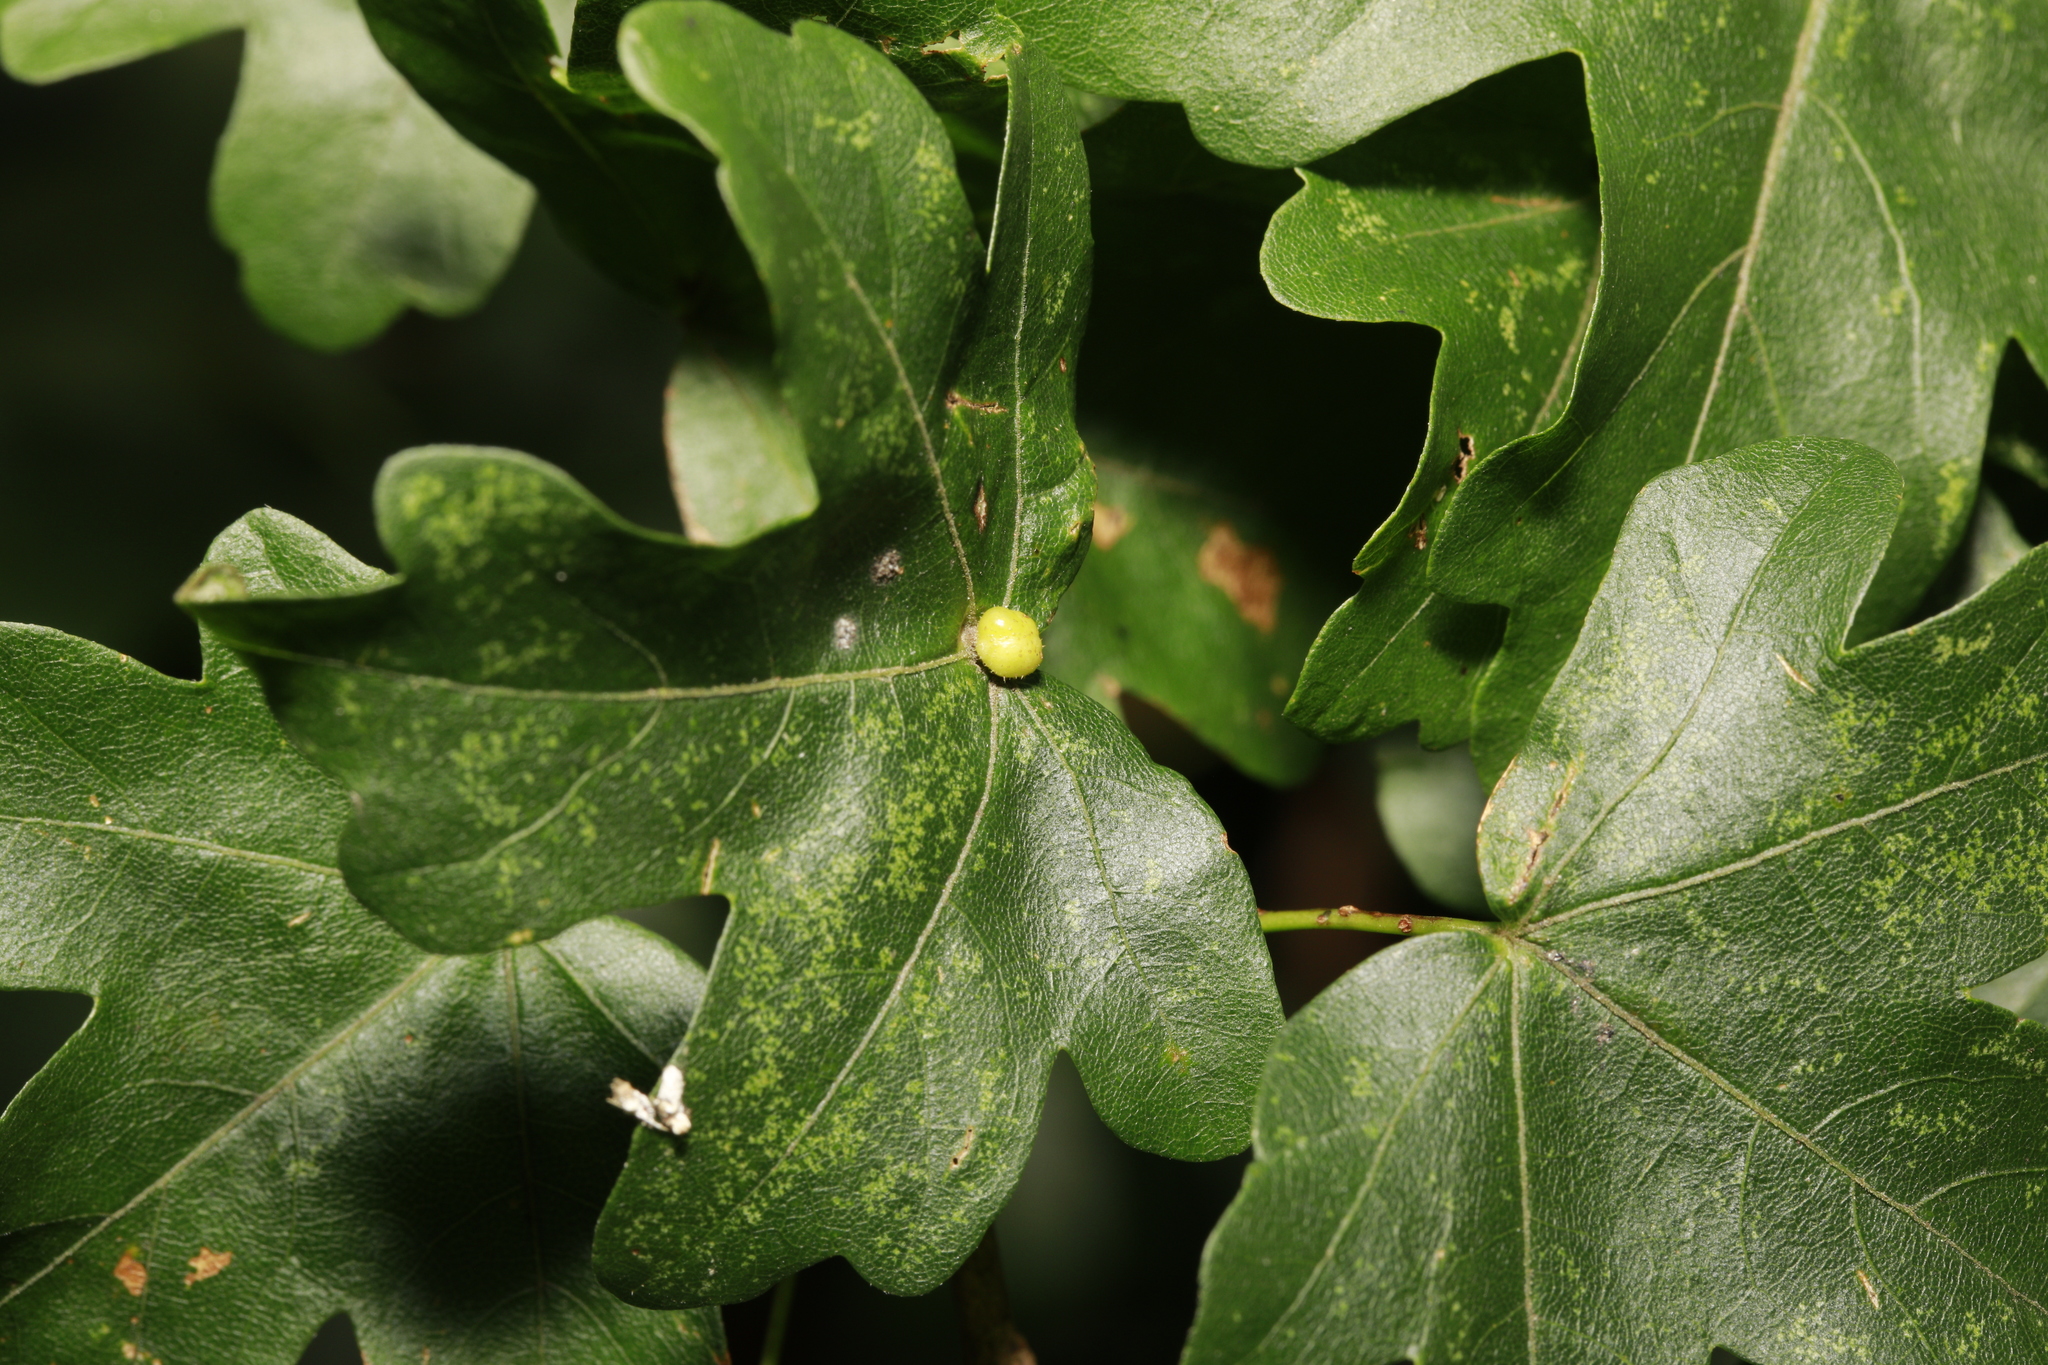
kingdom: Animalia
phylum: Arthropoda
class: Arachnida
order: Trombidiformes
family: Eriophyidae
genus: Aceria
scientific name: Aceria macrochelus
